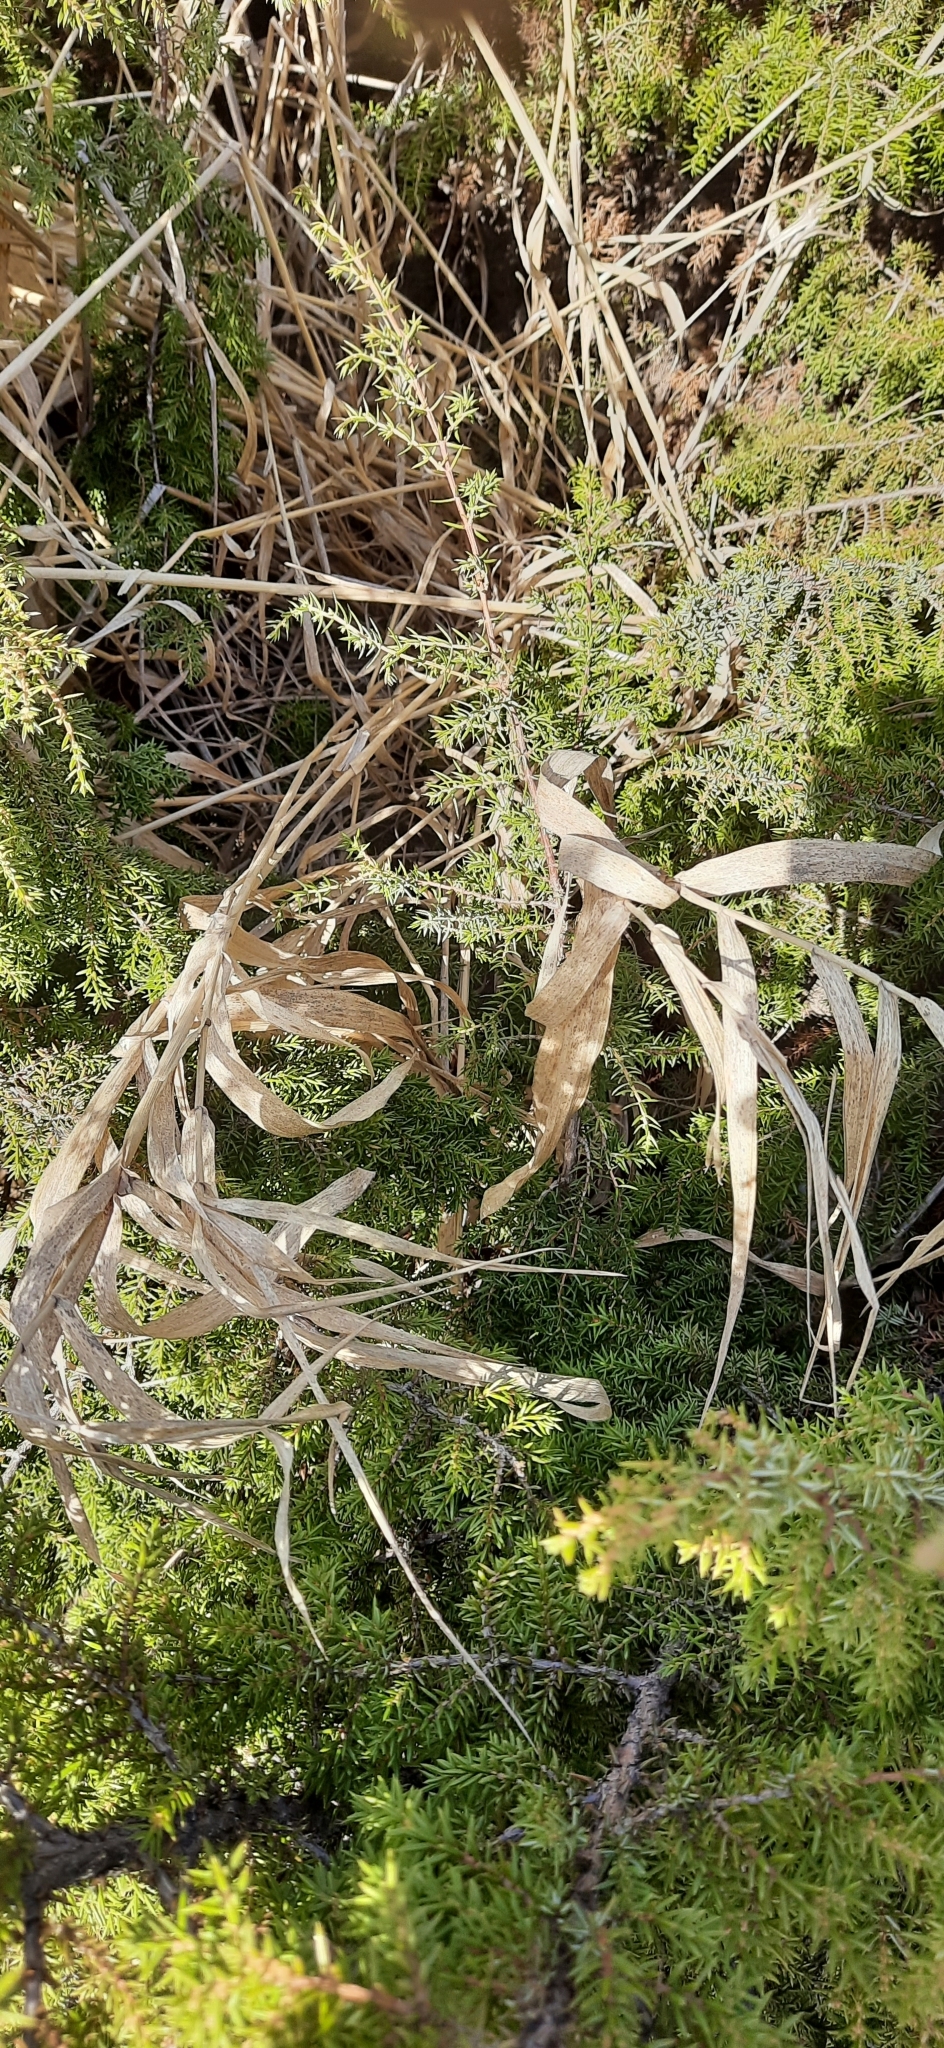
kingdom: Plantae
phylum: Tracheophyta
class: Pinopsida
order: Pinales
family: Cupressaceae
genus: Juniperus
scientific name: Juniperus communis
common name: Common juniper
